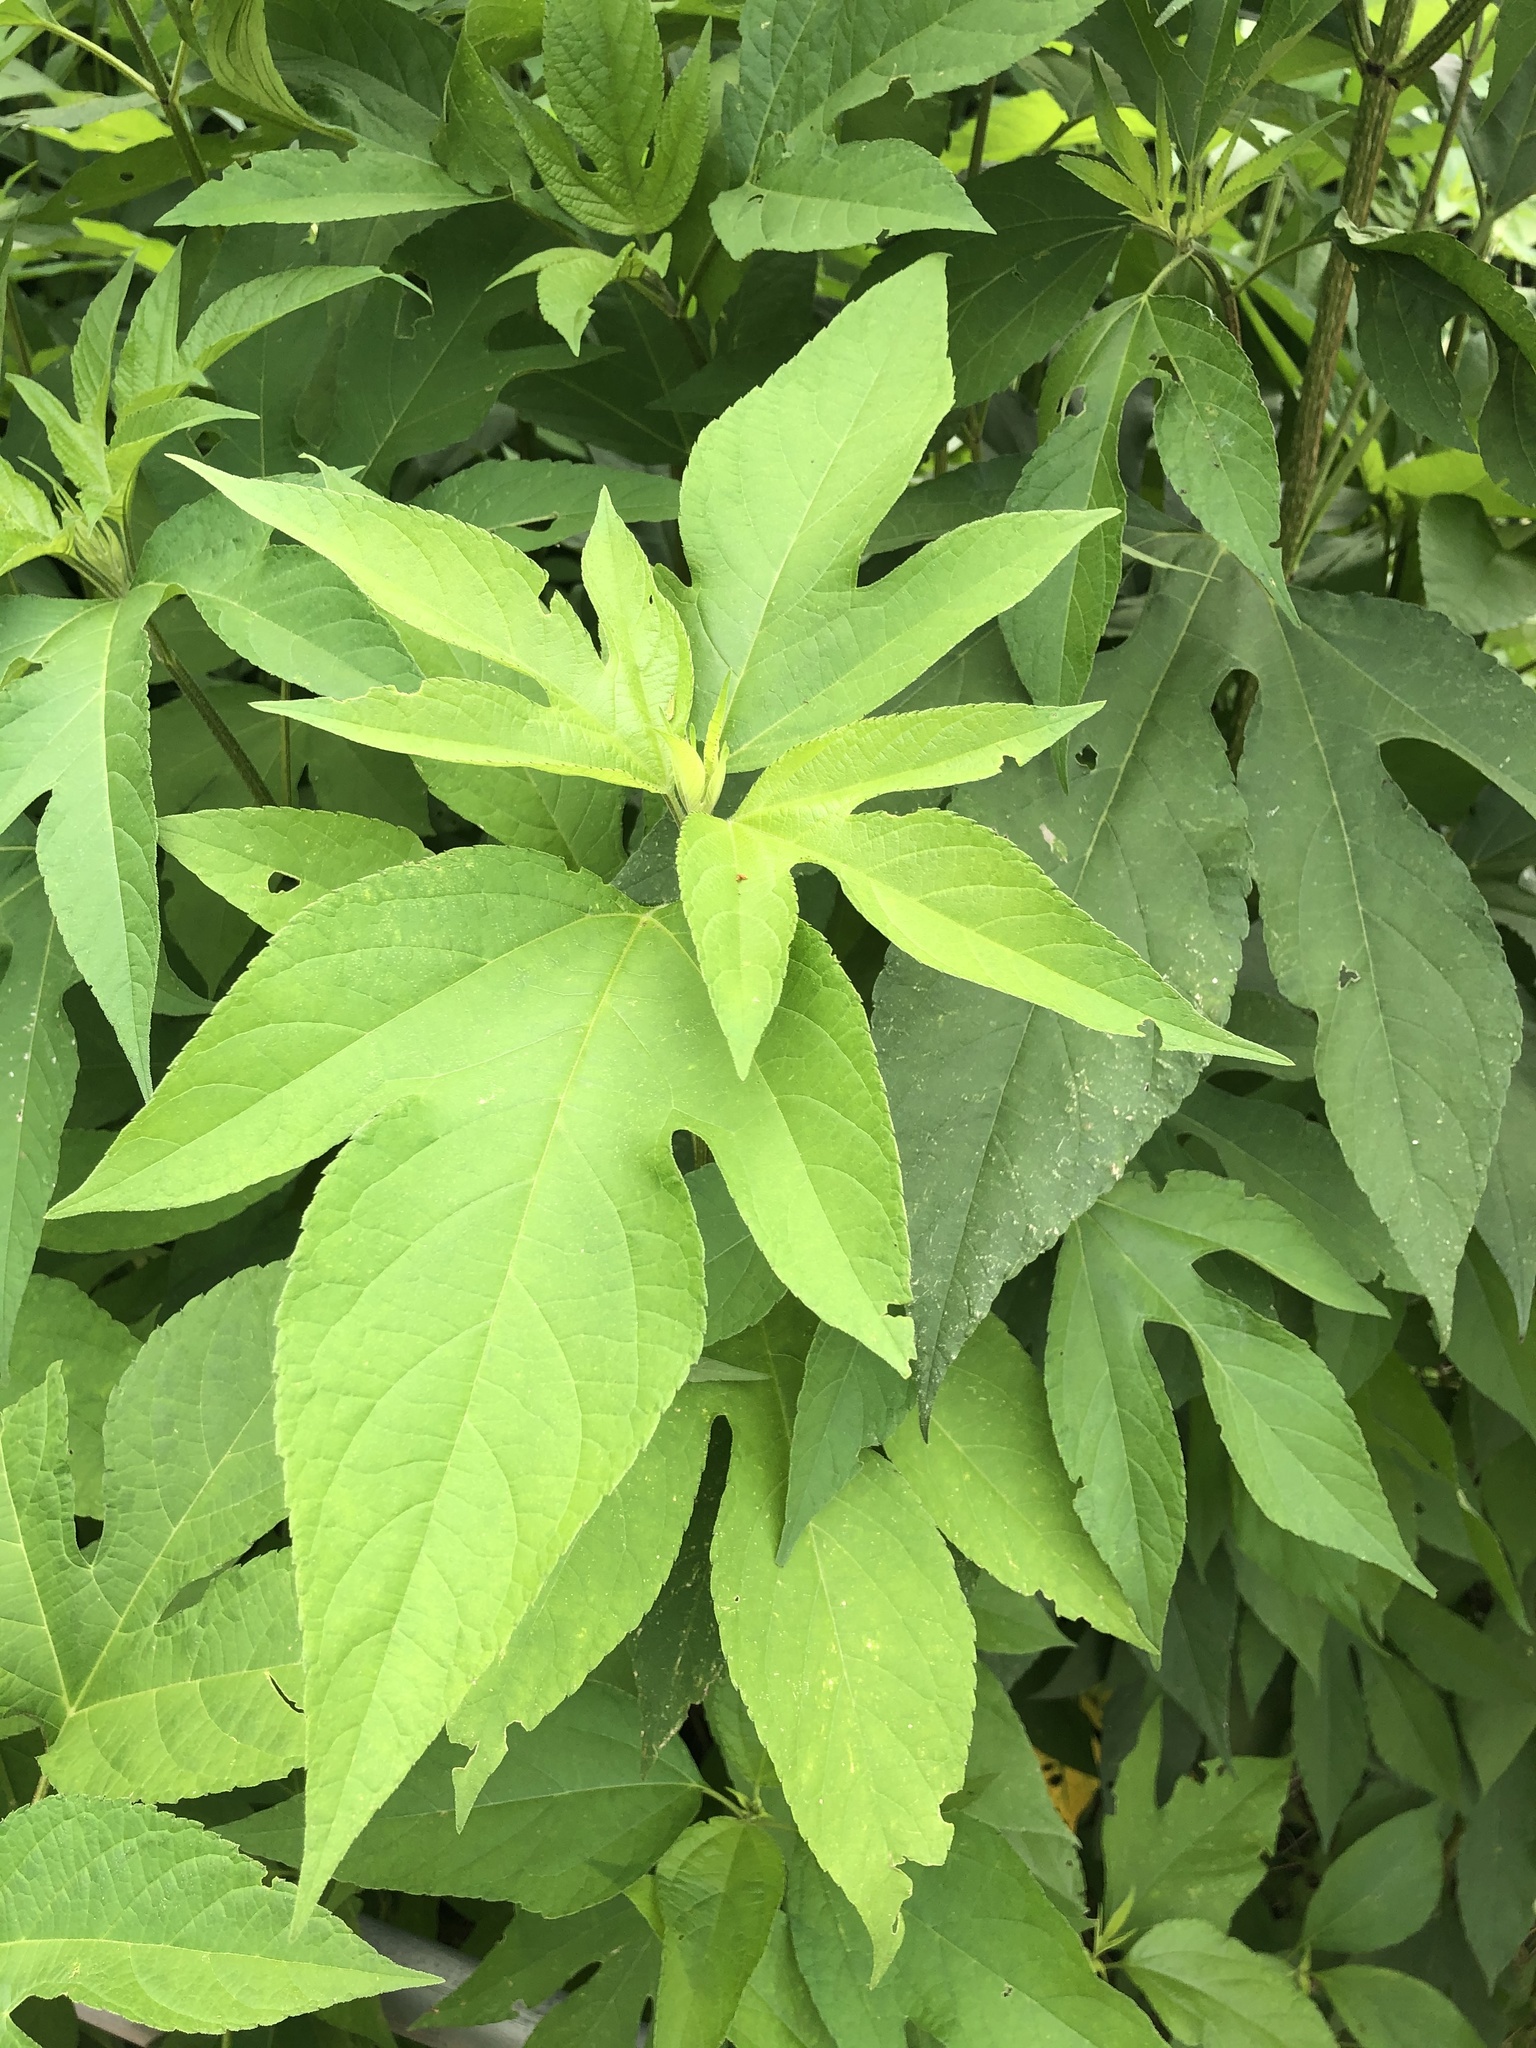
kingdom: Plantae
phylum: Tracheophyta
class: Magnoliopsida
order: Asterales
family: Asteraceae
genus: Ambrosia
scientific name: Ambrosia trifida
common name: Giant ragweed
